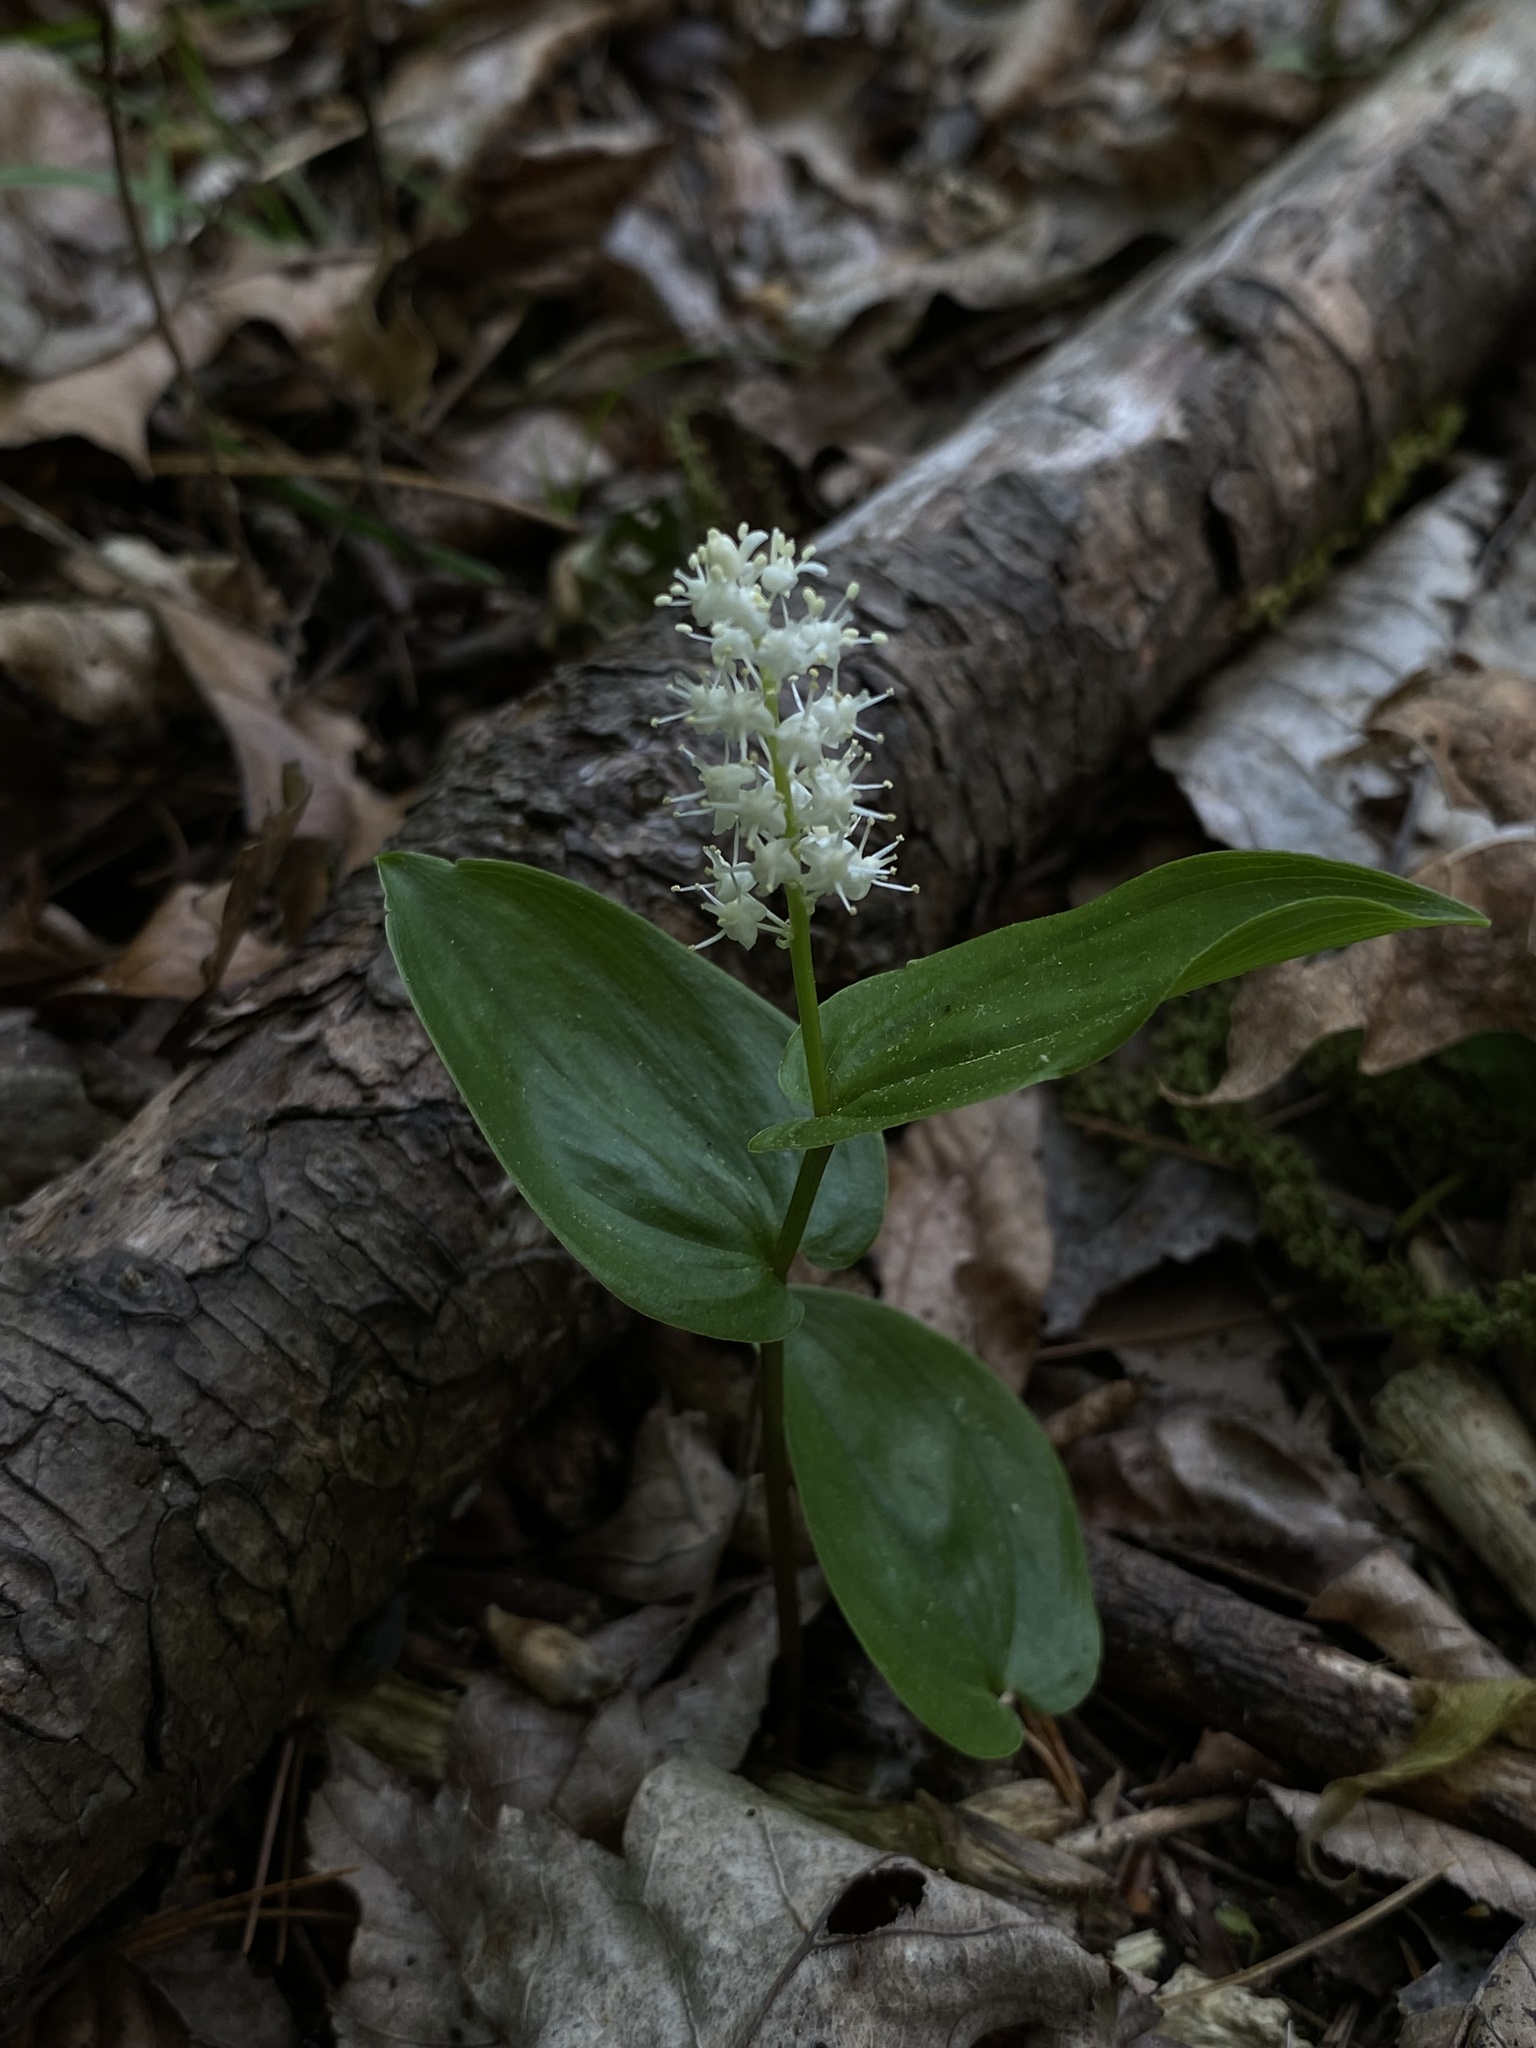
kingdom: Plantae
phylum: Tracheophyta
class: Liliopsida
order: Asparagales
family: Asparagaceae
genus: Maianthemum
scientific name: Maianthemum canadense
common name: False lily-of-the-valley
